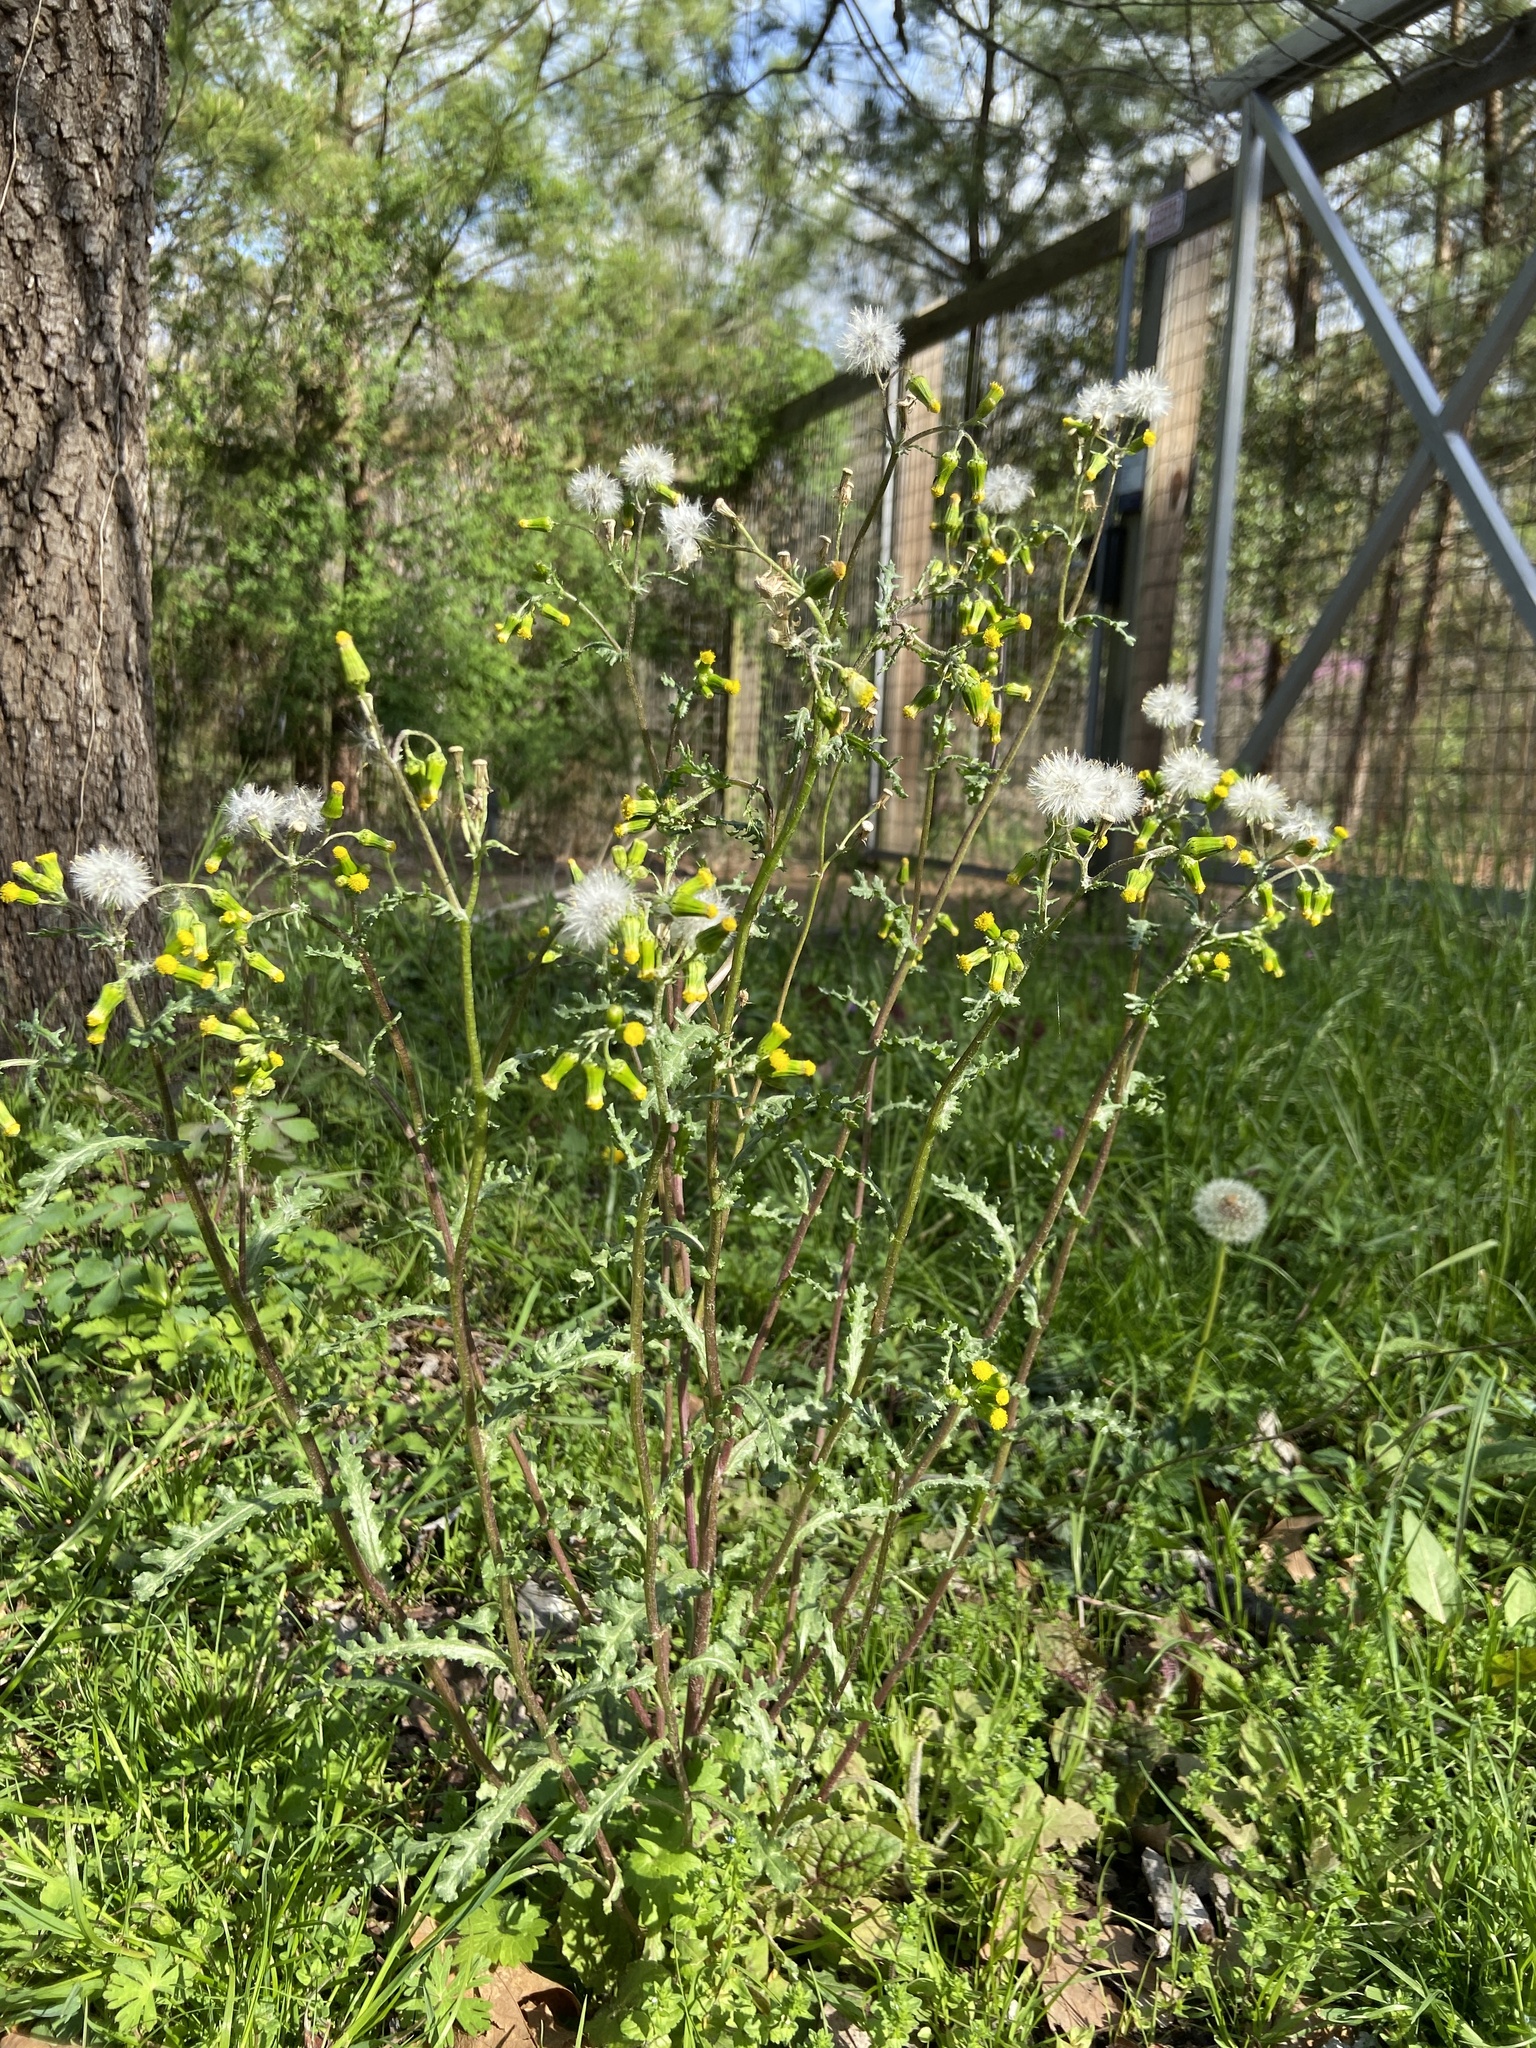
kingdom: Plantae
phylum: Tracheophyta
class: Magnoliopsida
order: Asterales
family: Asteraceae
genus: Senecio
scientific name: Senecio vulgaris
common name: Old-man-in-the-spring
